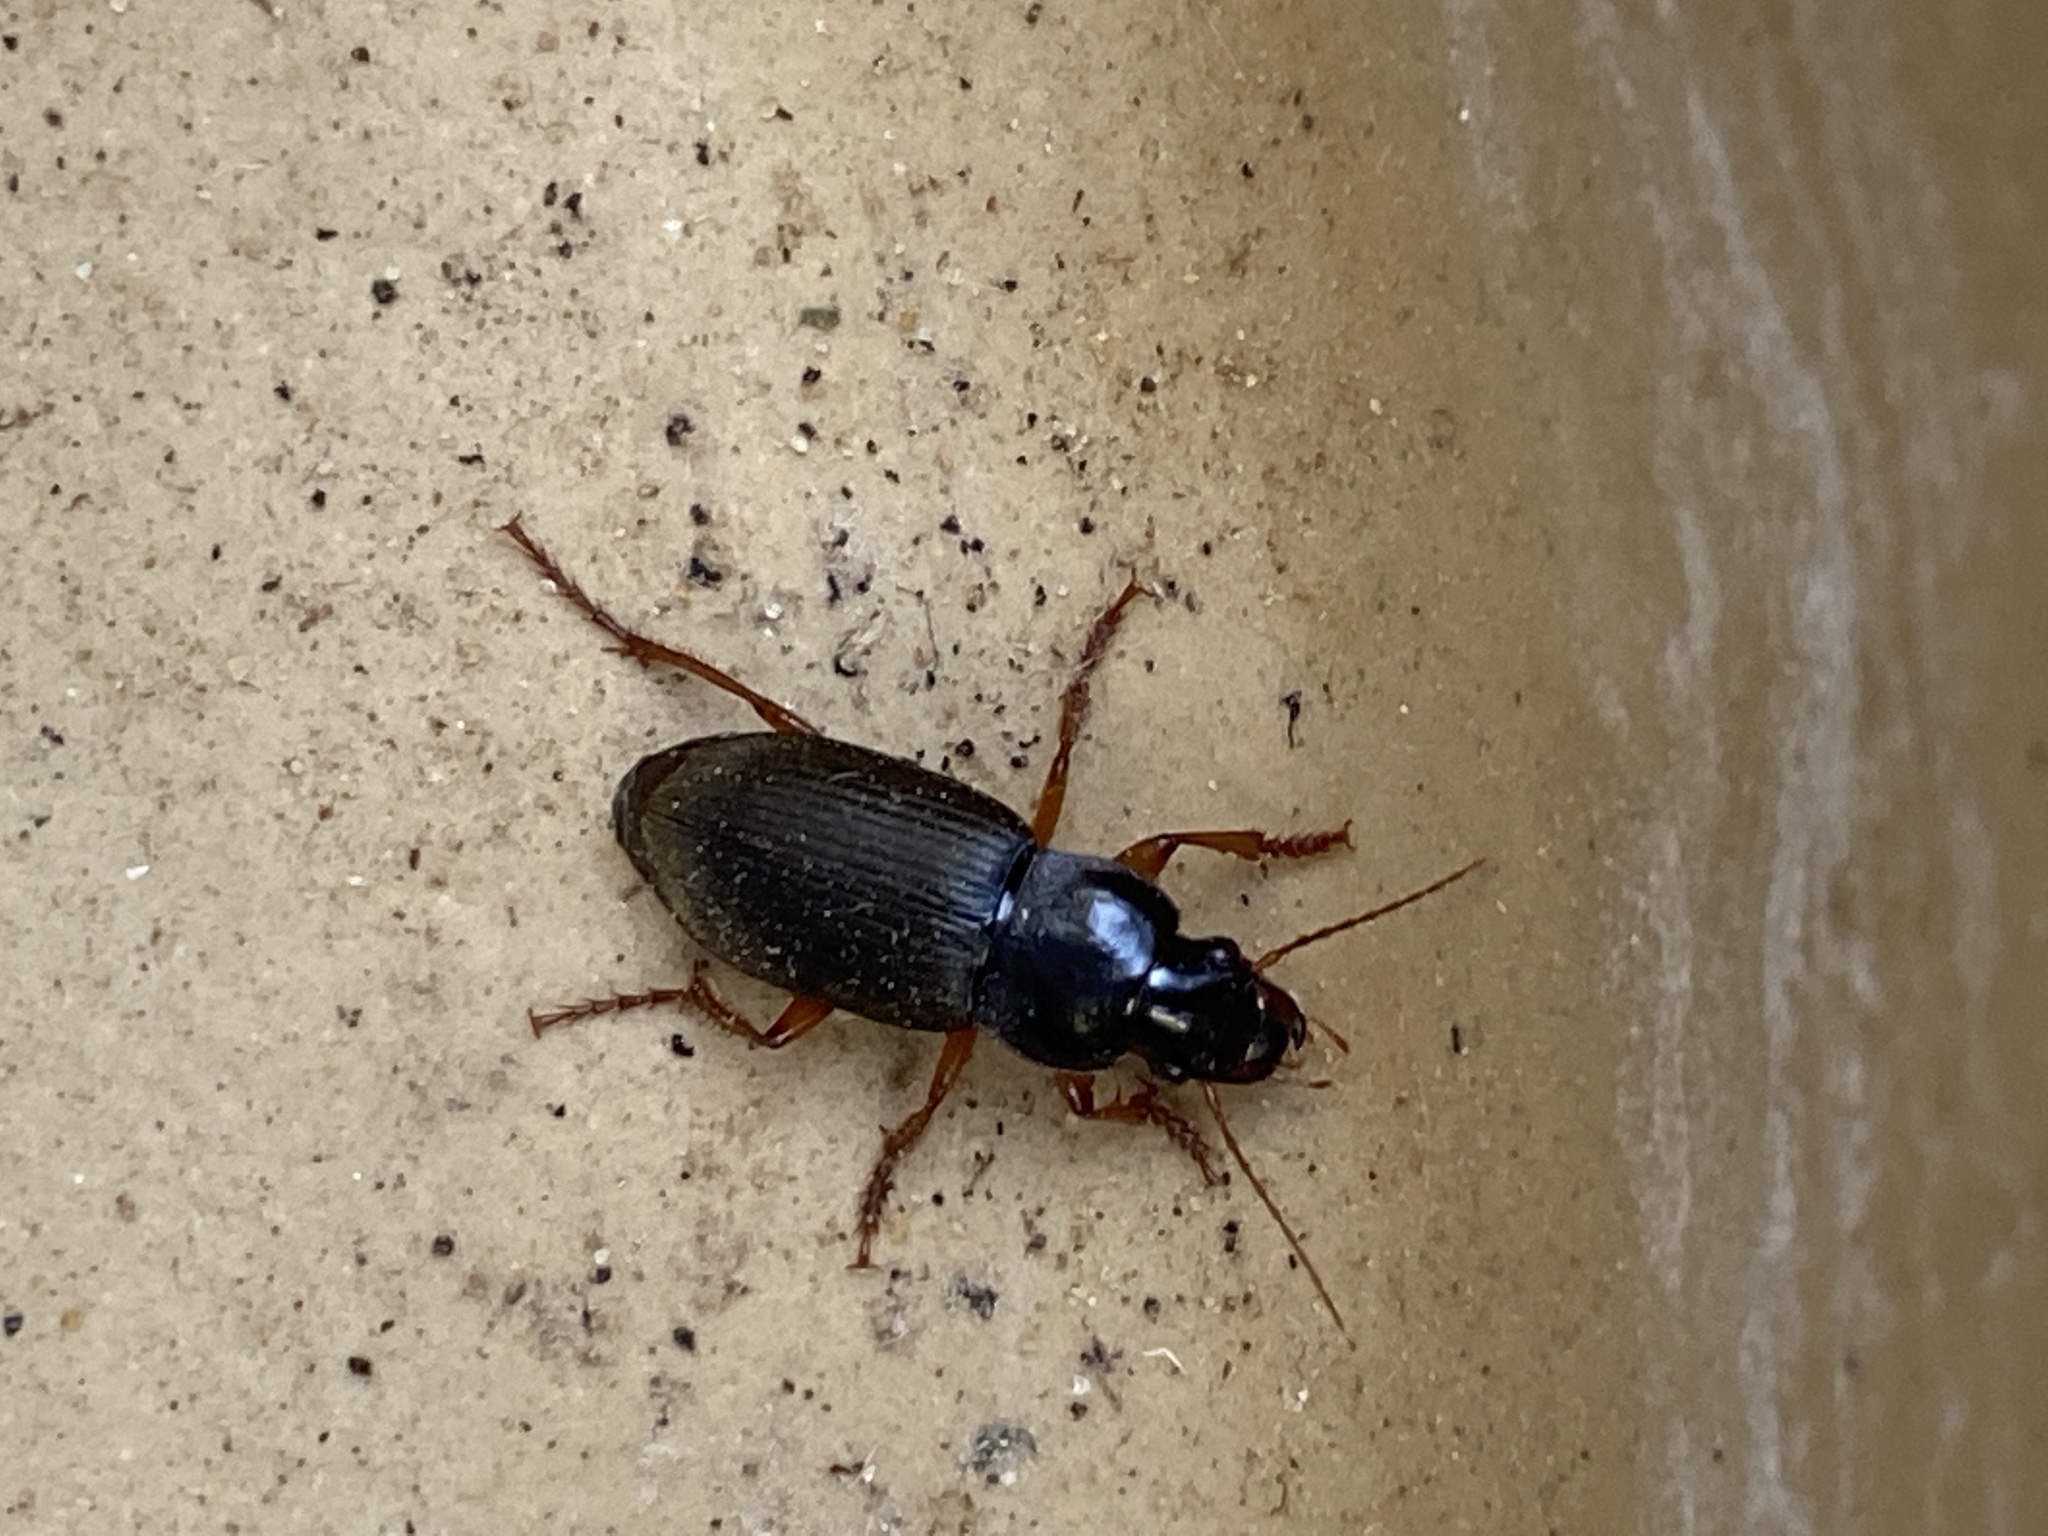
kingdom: Animalia
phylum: Arthropoda
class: Insecta
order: Coleoptera
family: Carabidae
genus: Harpalus
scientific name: Harpalus rufipes
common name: Strawberry harp ground beetle
